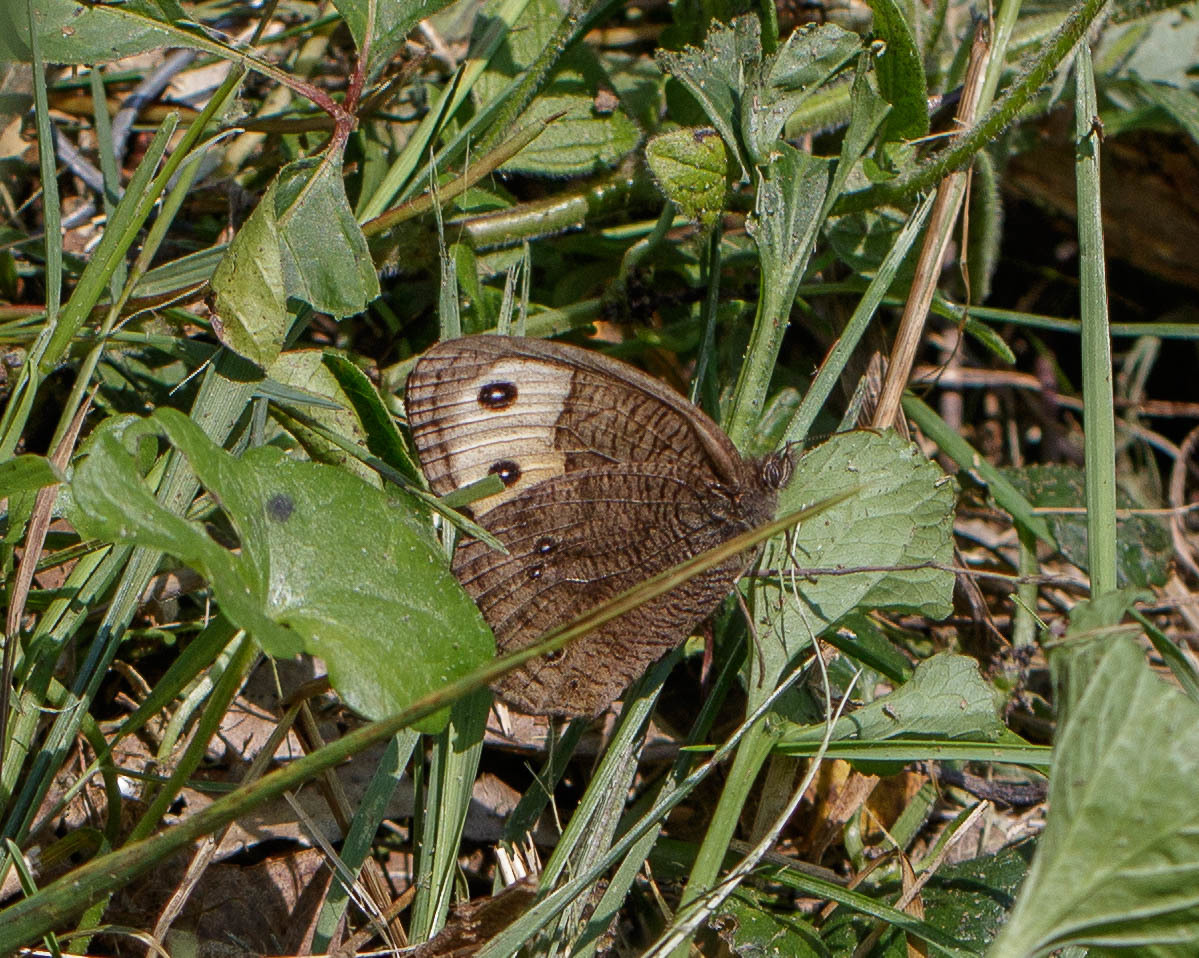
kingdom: Animalia
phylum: Arthropoda
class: Insecta
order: Lepidoptera
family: Nymphalidae
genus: Cercyonis
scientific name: Cercyonis pegala
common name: Common wood-nymph
